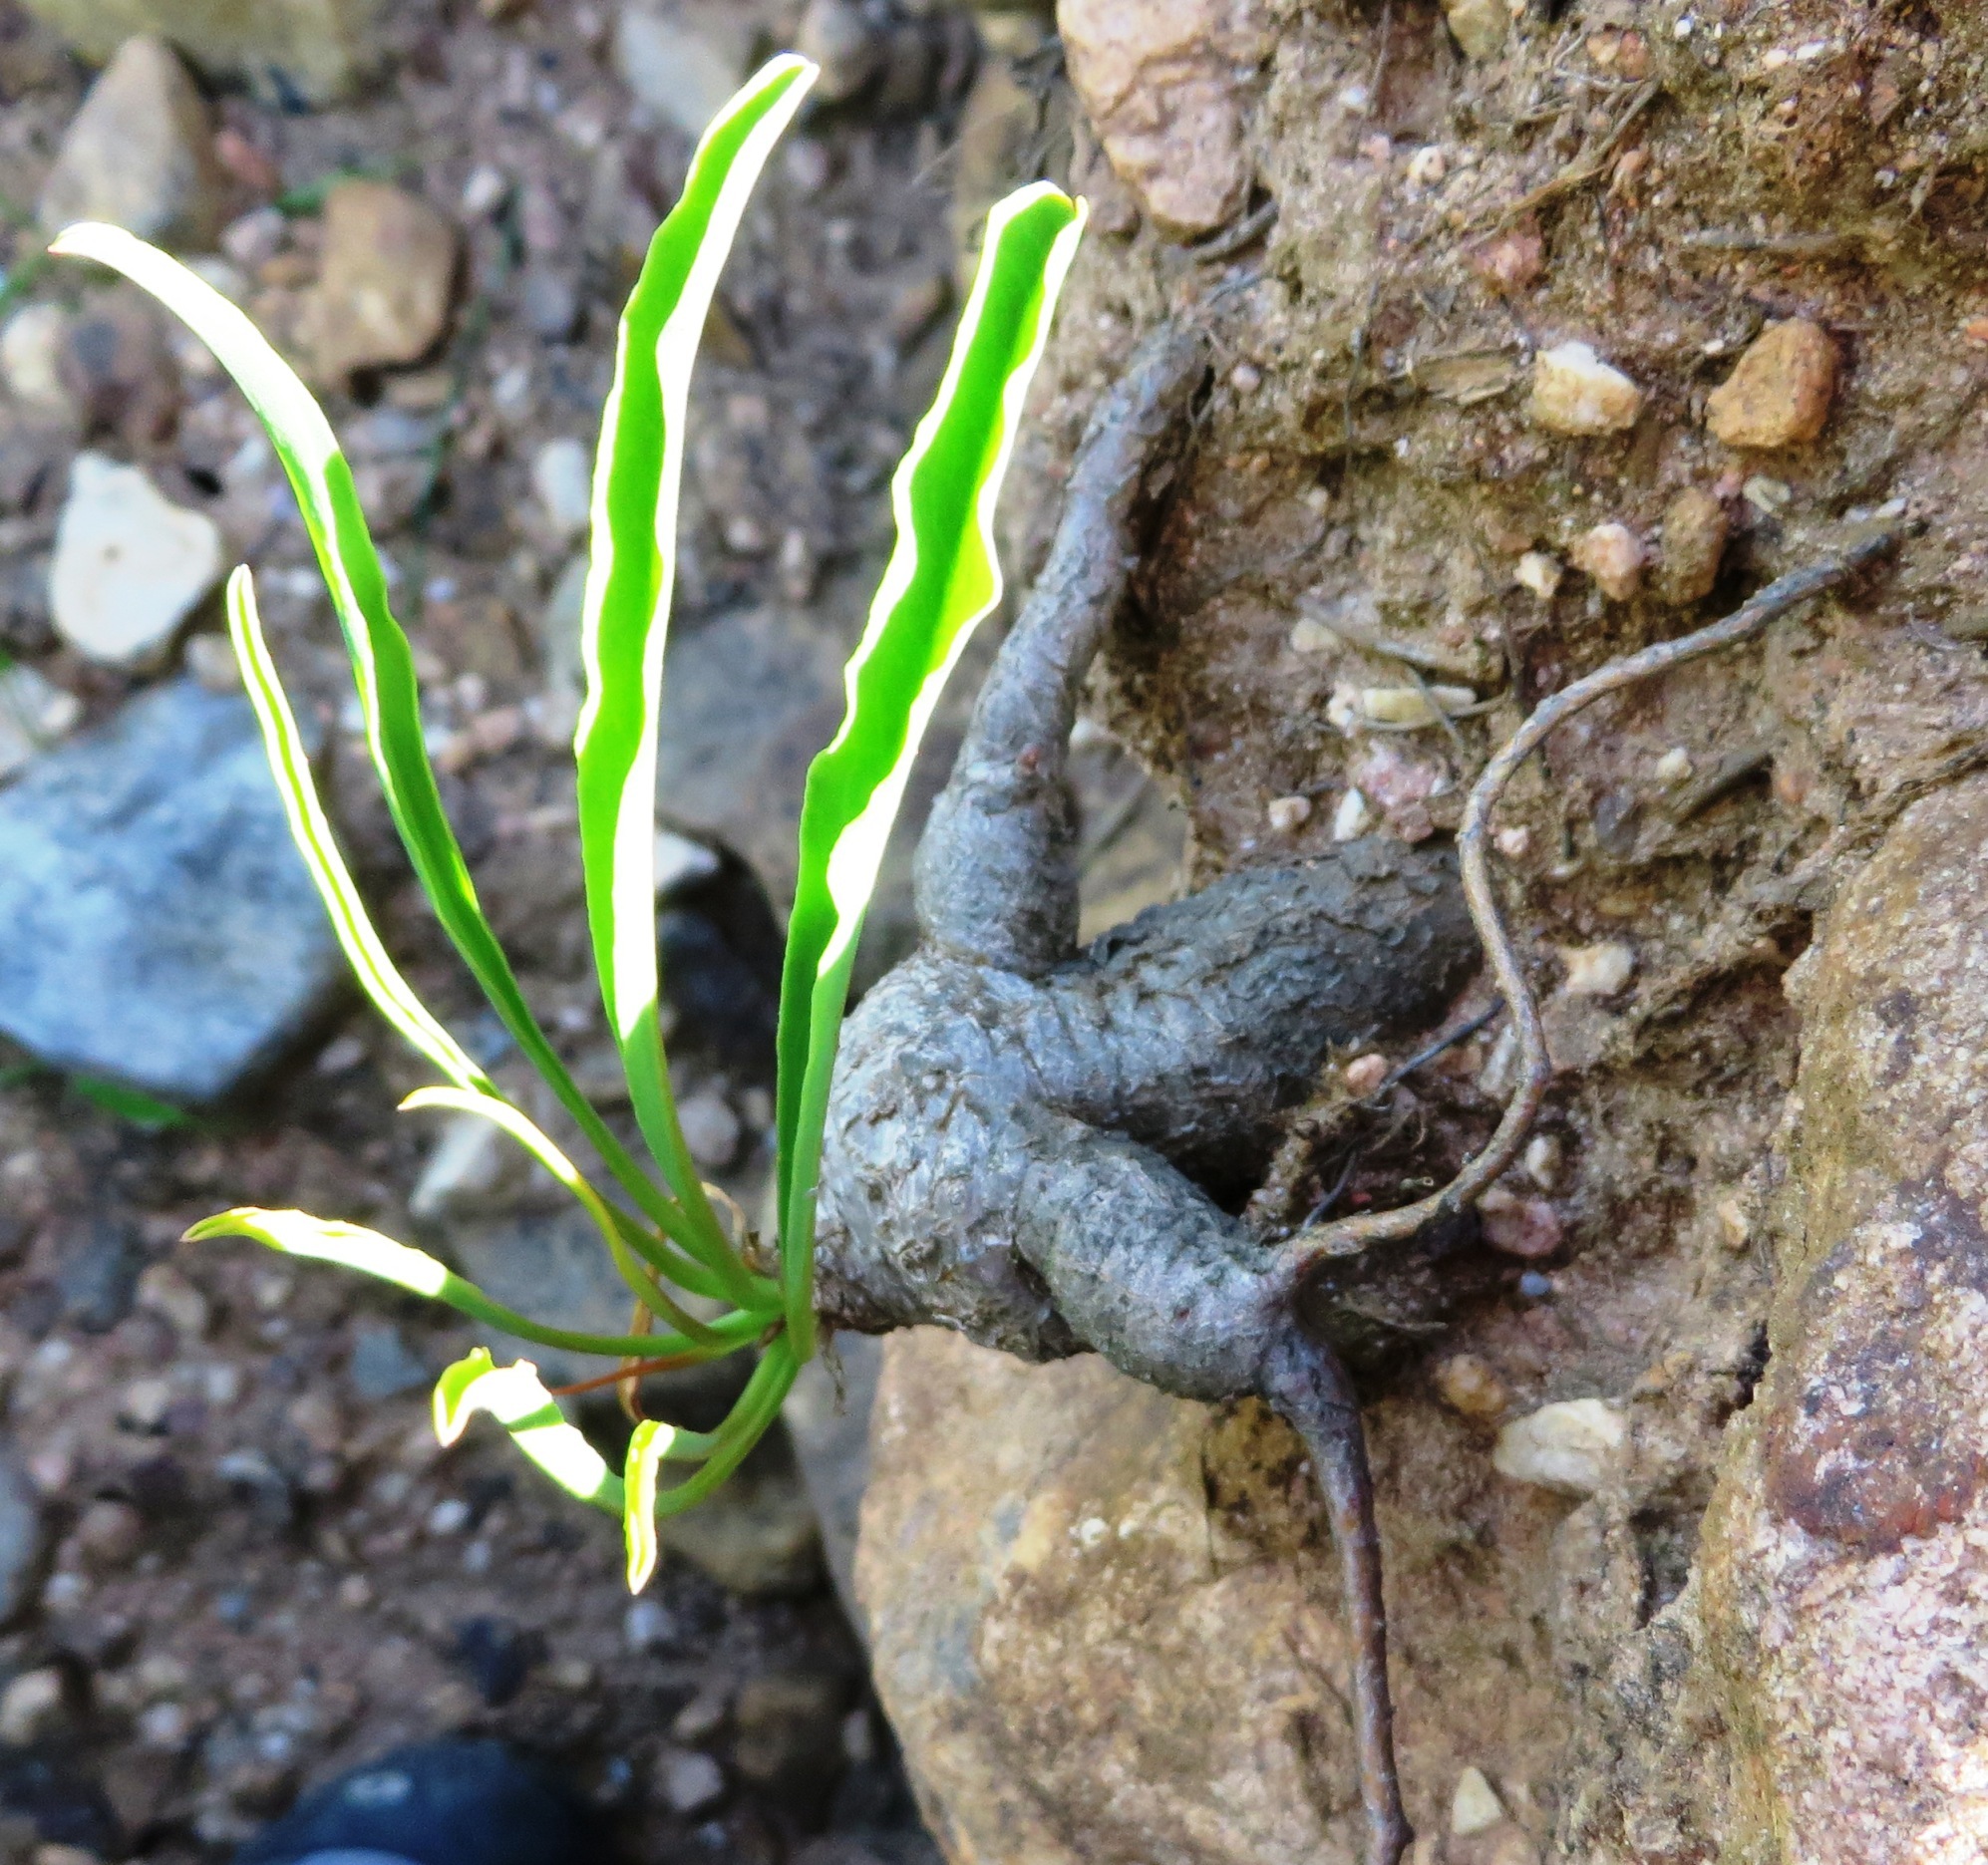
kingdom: Plantae
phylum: Tracheophyta
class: Magnoliopsida
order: Malpighiales
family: Euphorbiaceae
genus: Euphorbia
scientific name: Euphorbia silenifolia
